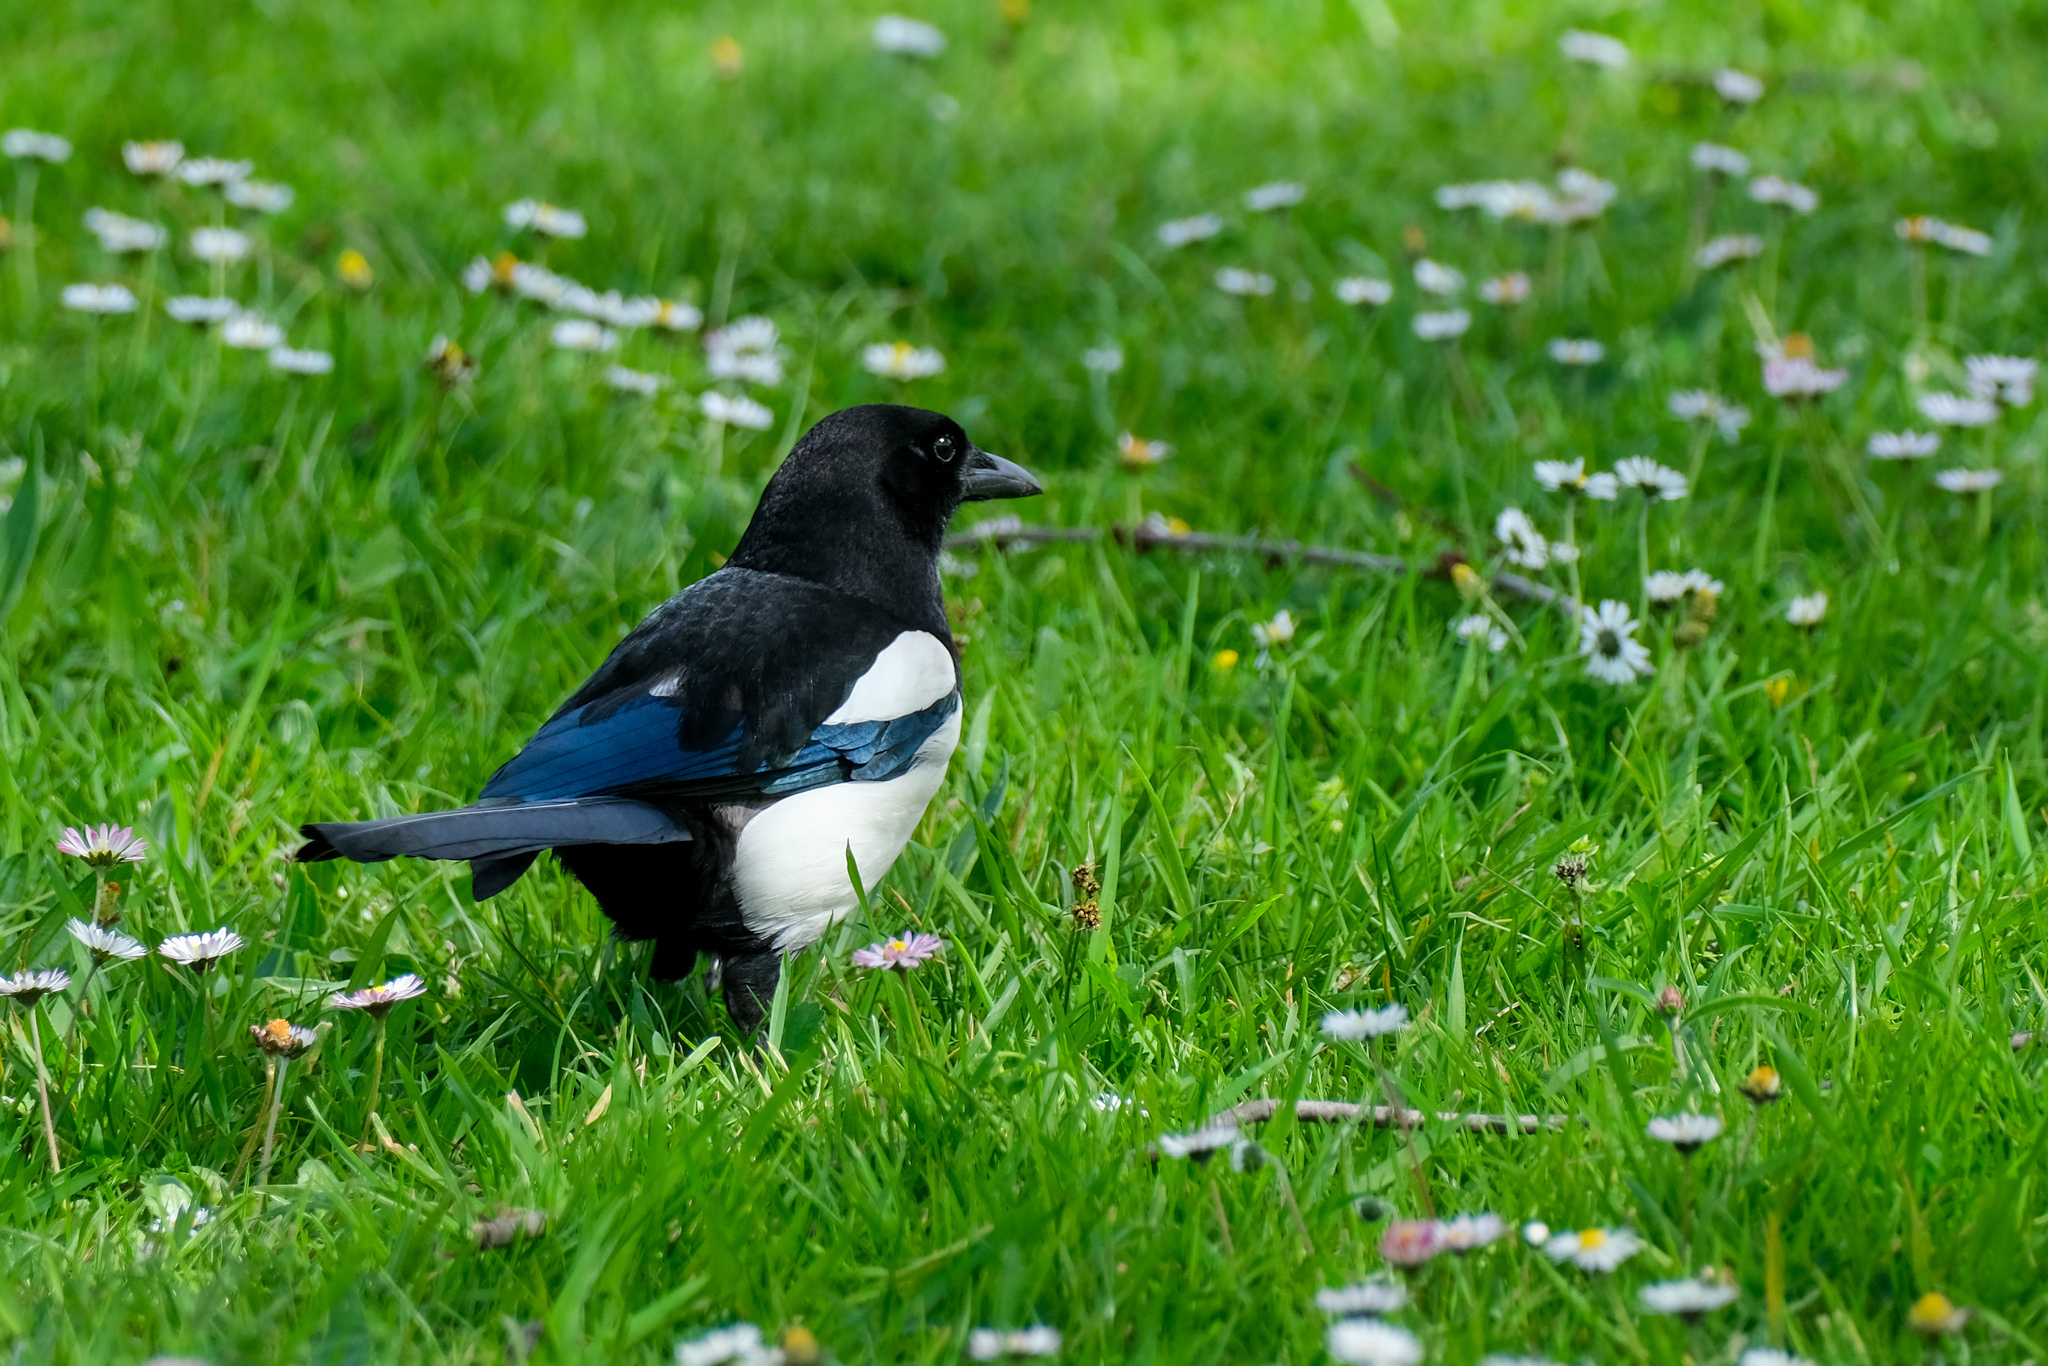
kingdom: Animalia
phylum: Chordata
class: Aves
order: Passeriformes
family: Corvidae
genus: Pica
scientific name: Pica pica
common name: Eurasian magpie
